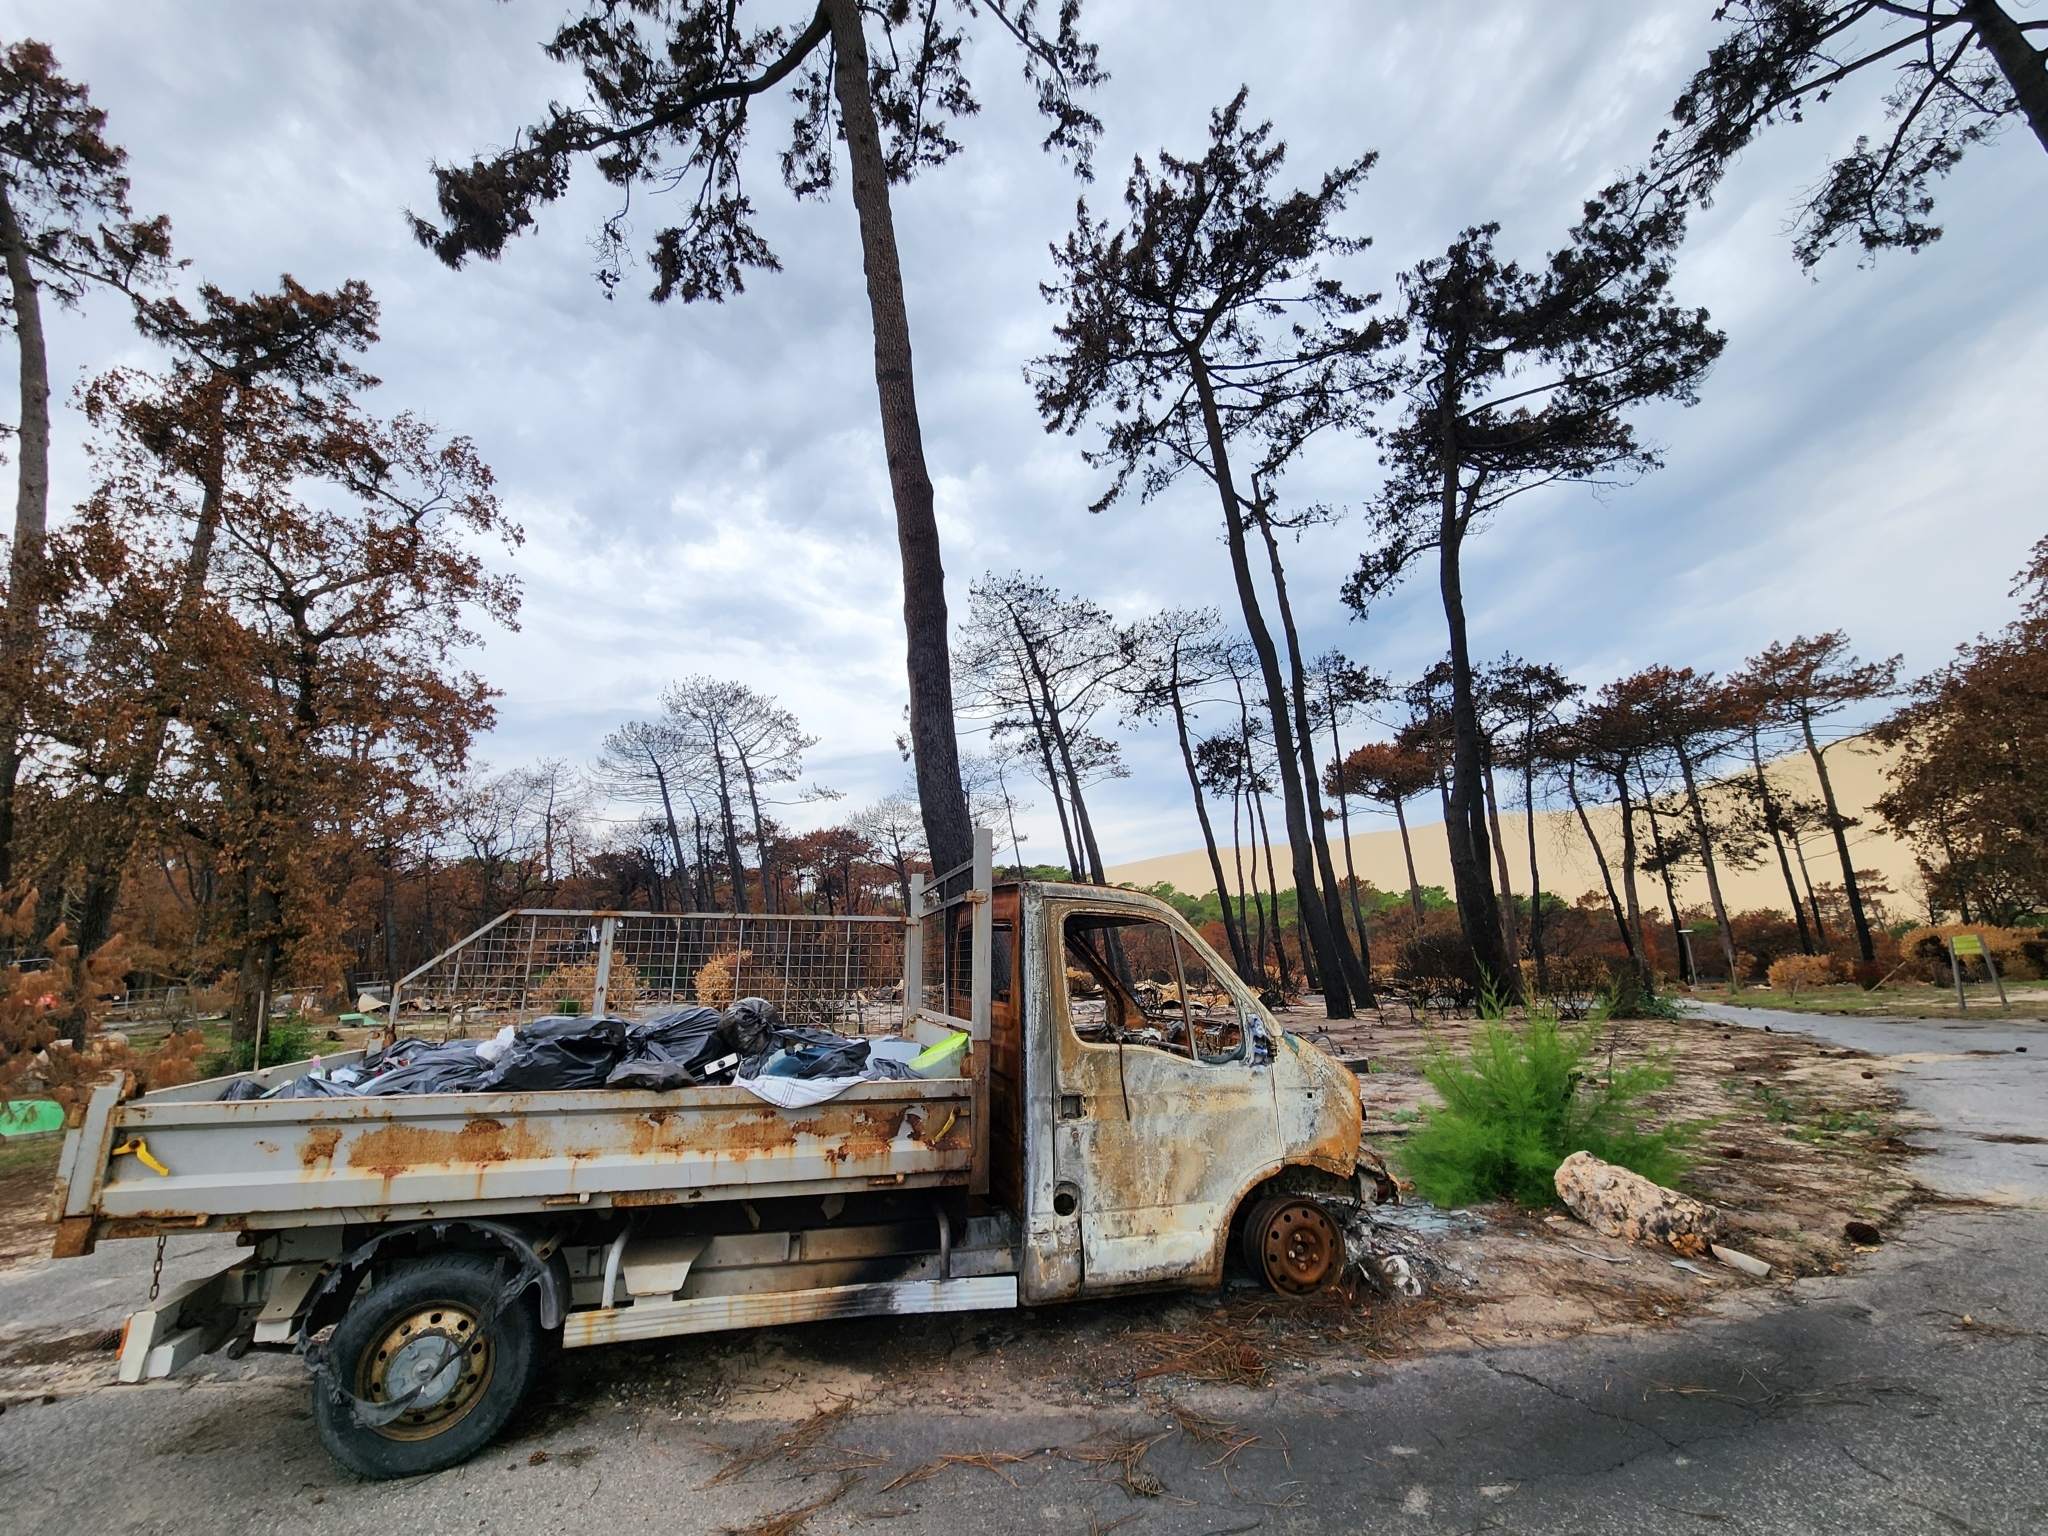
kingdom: Plantae
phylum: Tracheophyta
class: Pinopsida
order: Pinales
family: Pinaceae
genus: Pinus
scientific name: Pinus pinaster
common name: Maritime pine
